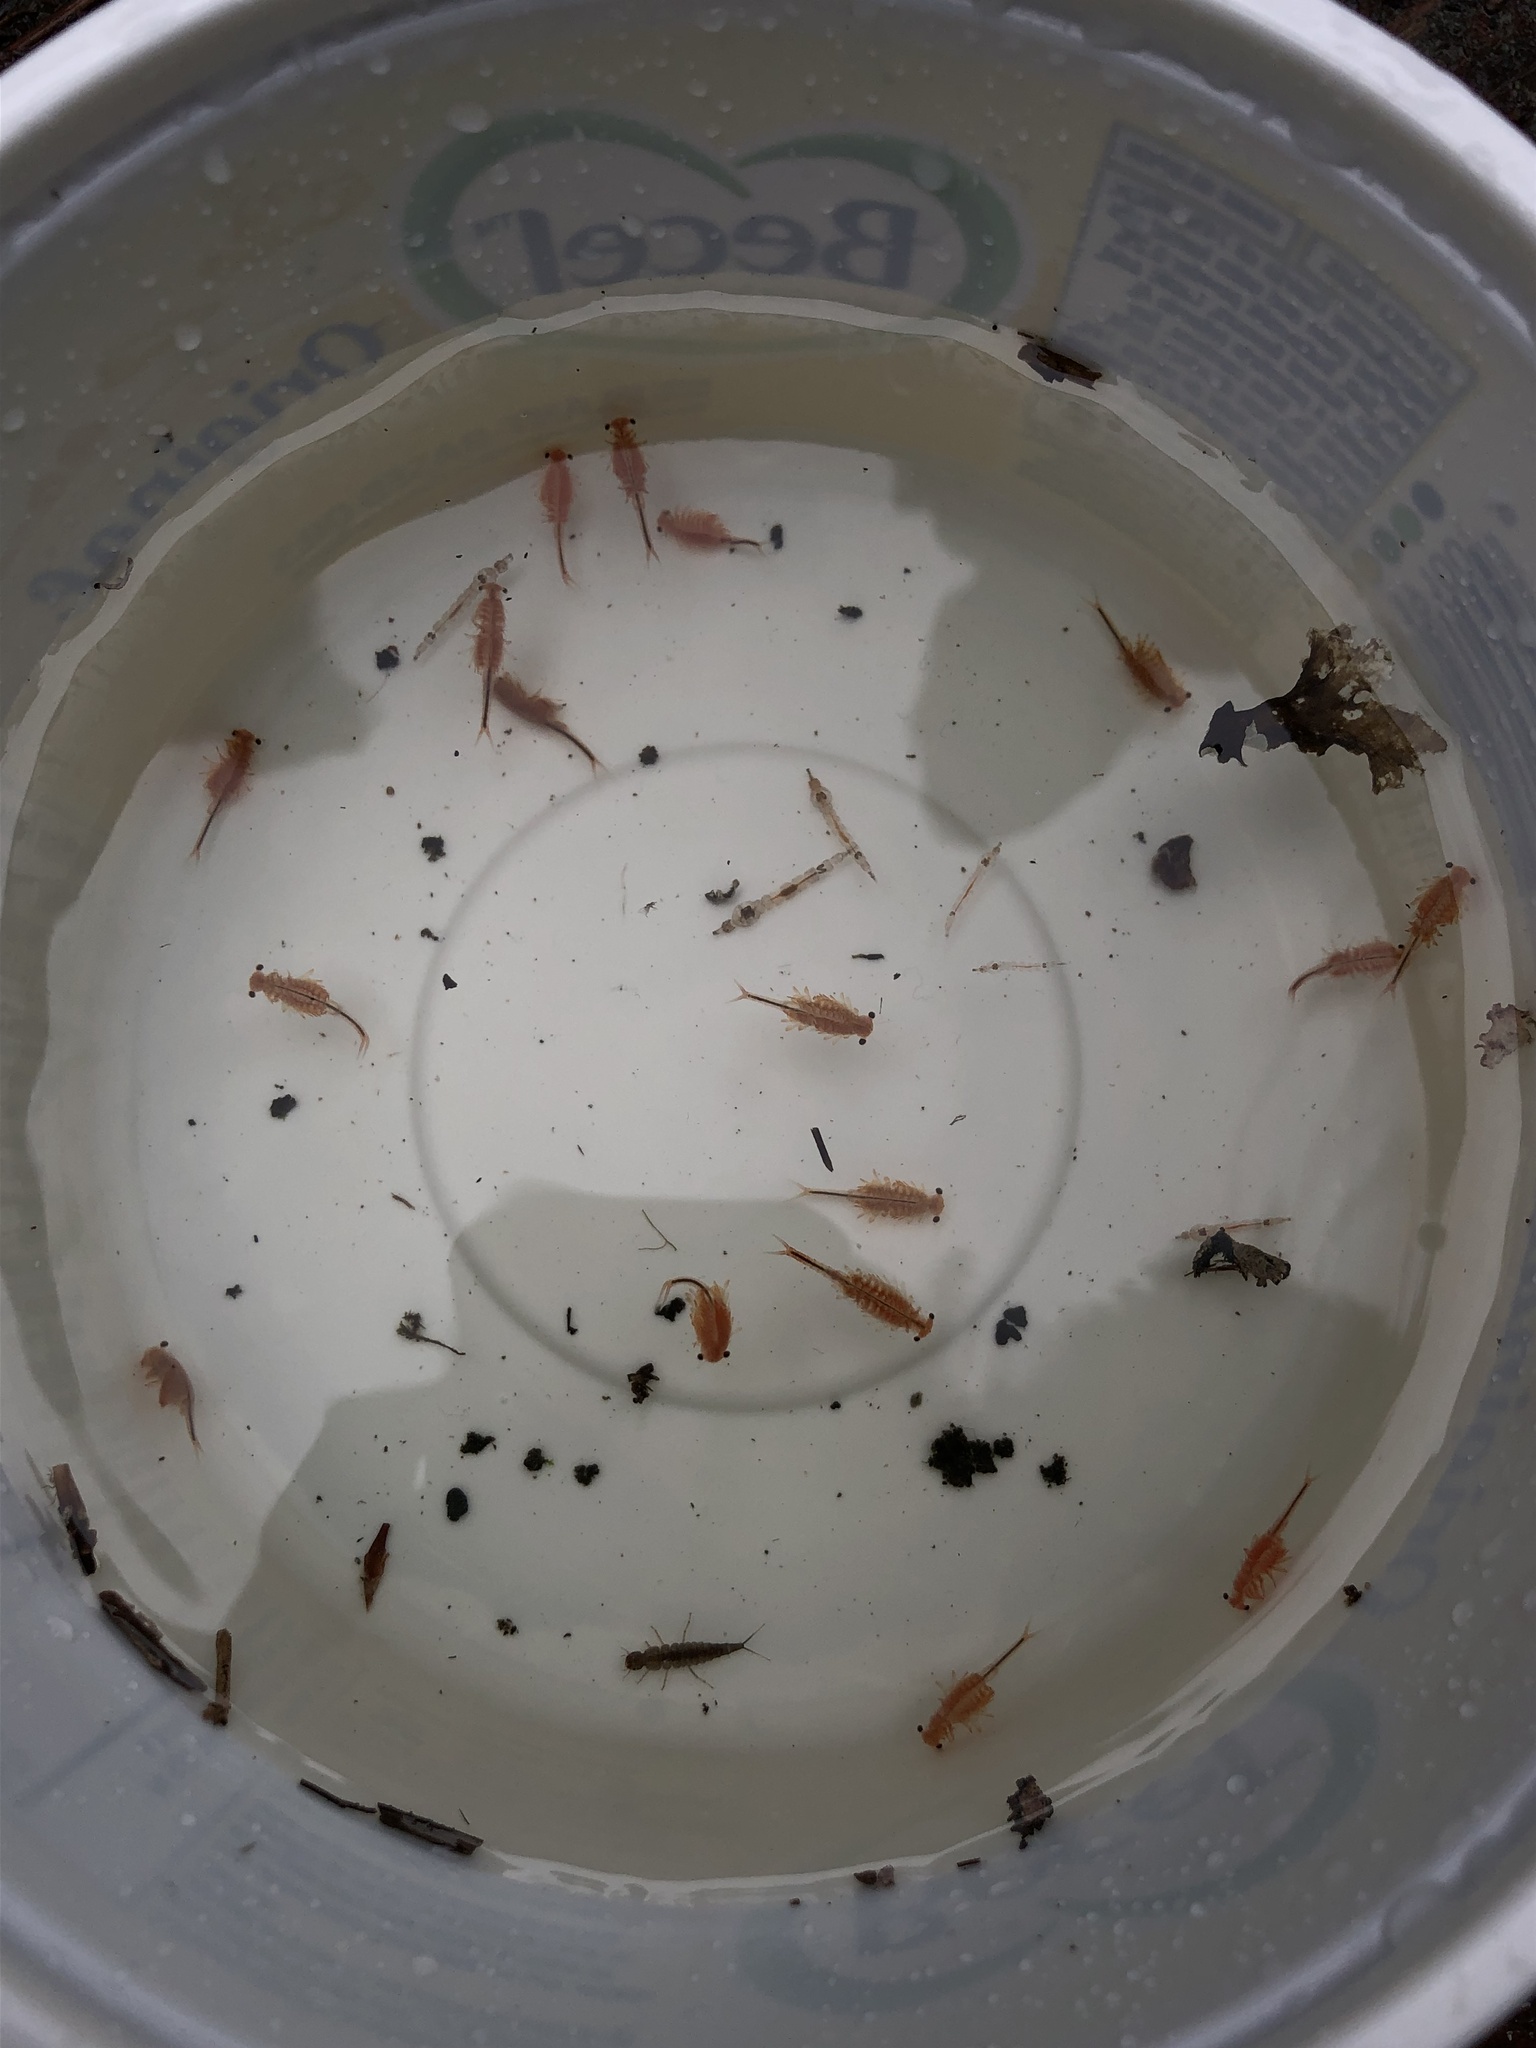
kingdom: Animalia
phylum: Arthropoda
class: Branchiopoda
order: Anostraca
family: Chirocephalidae
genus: Eubranchipus
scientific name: Eubranchipus oregonus
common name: Oregon fairy shrimp
